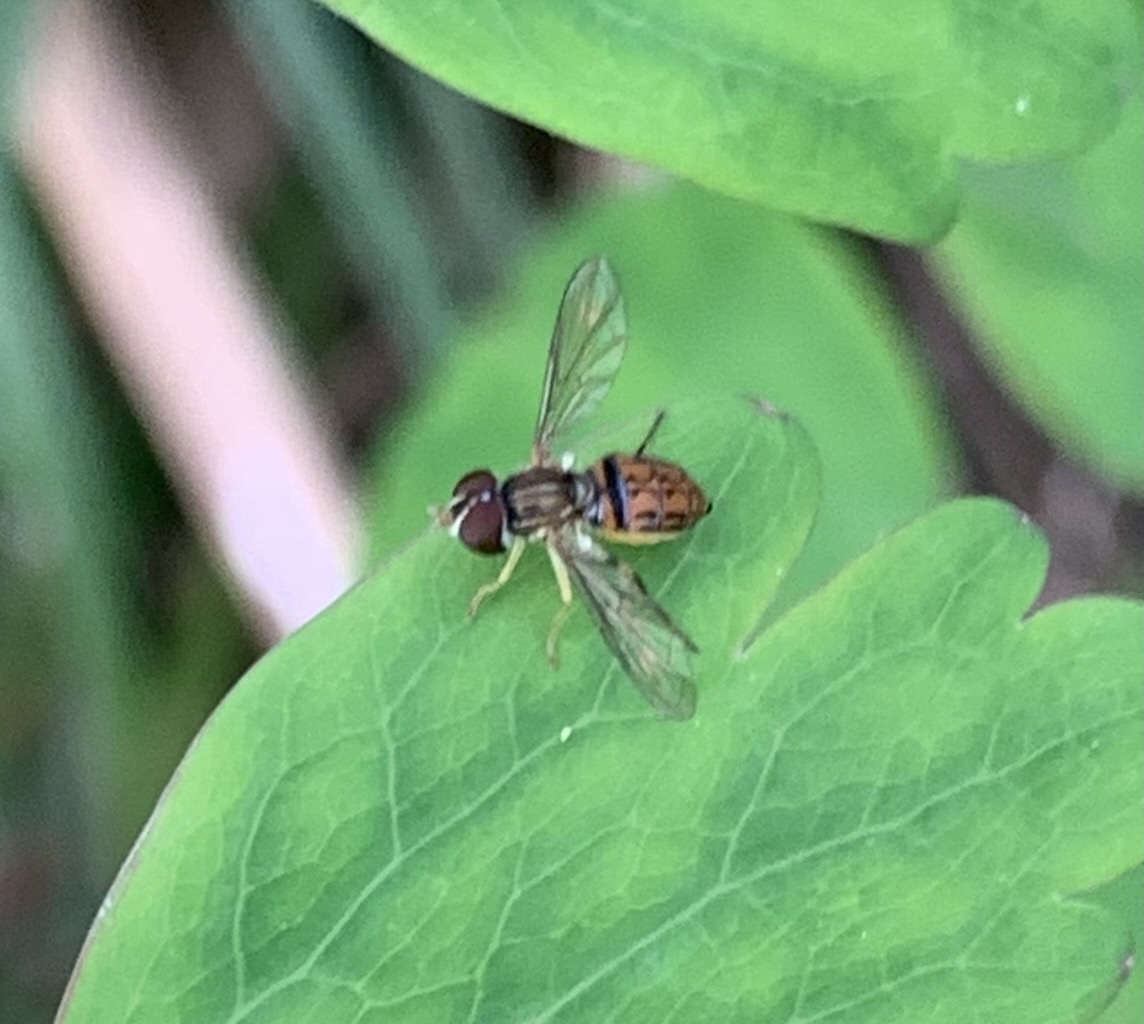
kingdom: Animalia
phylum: Arthropoda
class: Insecta
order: Diptera
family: Syrphidae
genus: Toxomerus
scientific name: Toxomerus boscii
